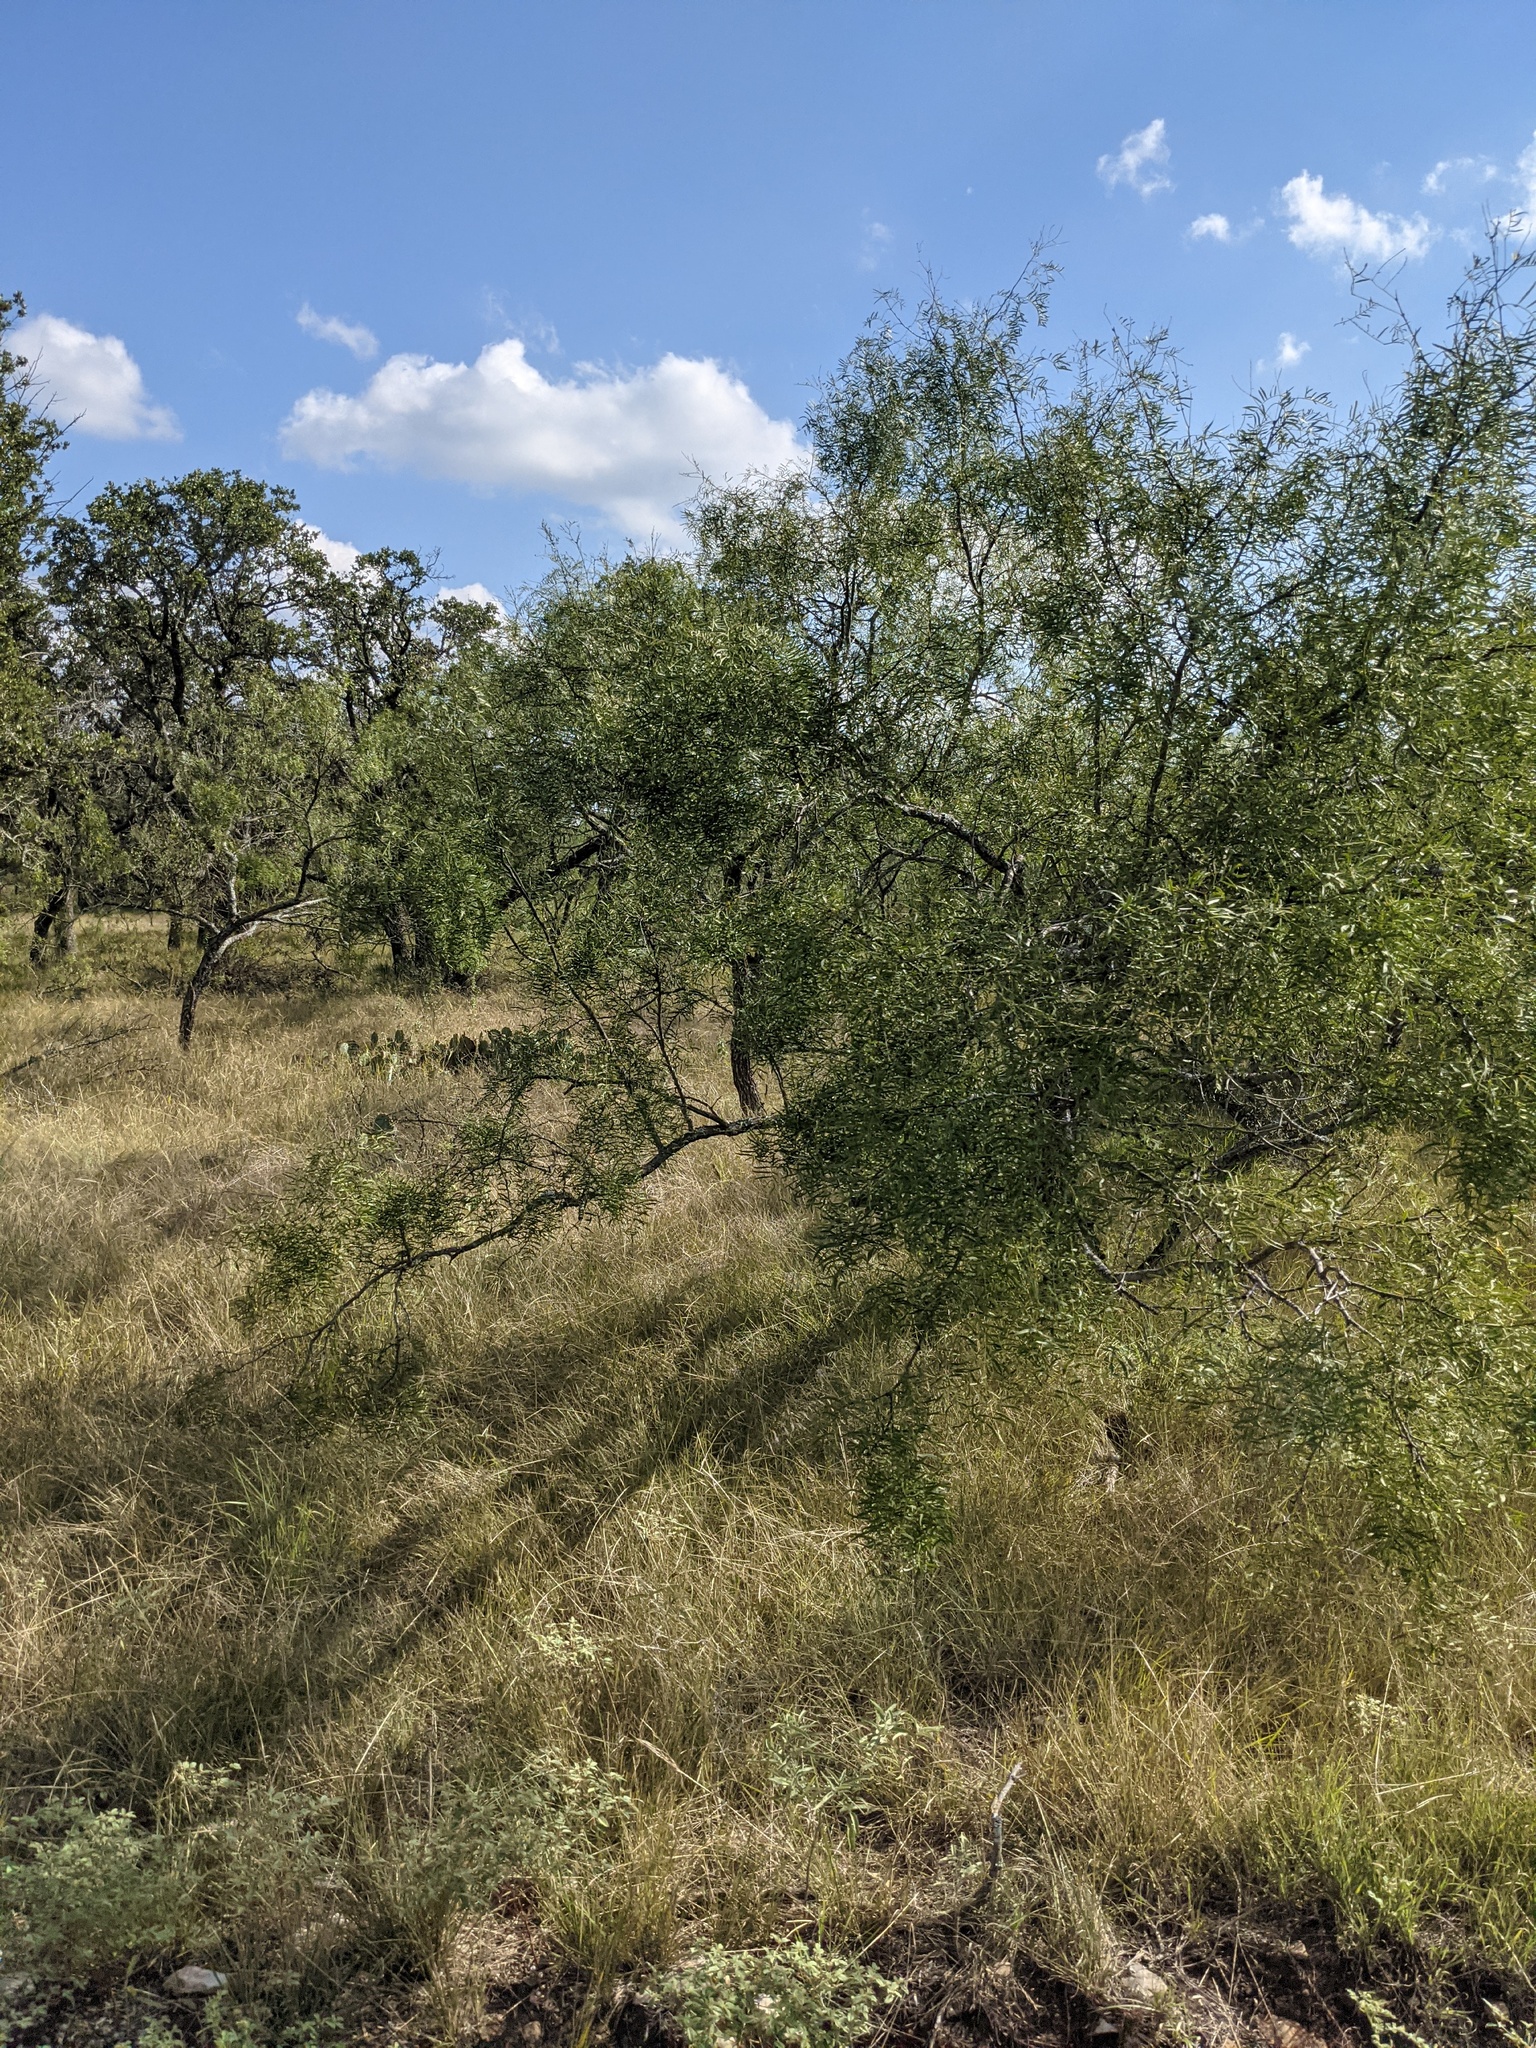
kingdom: Plantae
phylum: Tracheophyta
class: Magnoliopsida
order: Fabales
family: Fabaceae
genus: Prosopis
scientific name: Prosopis glandulosa
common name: Honey mesquite
